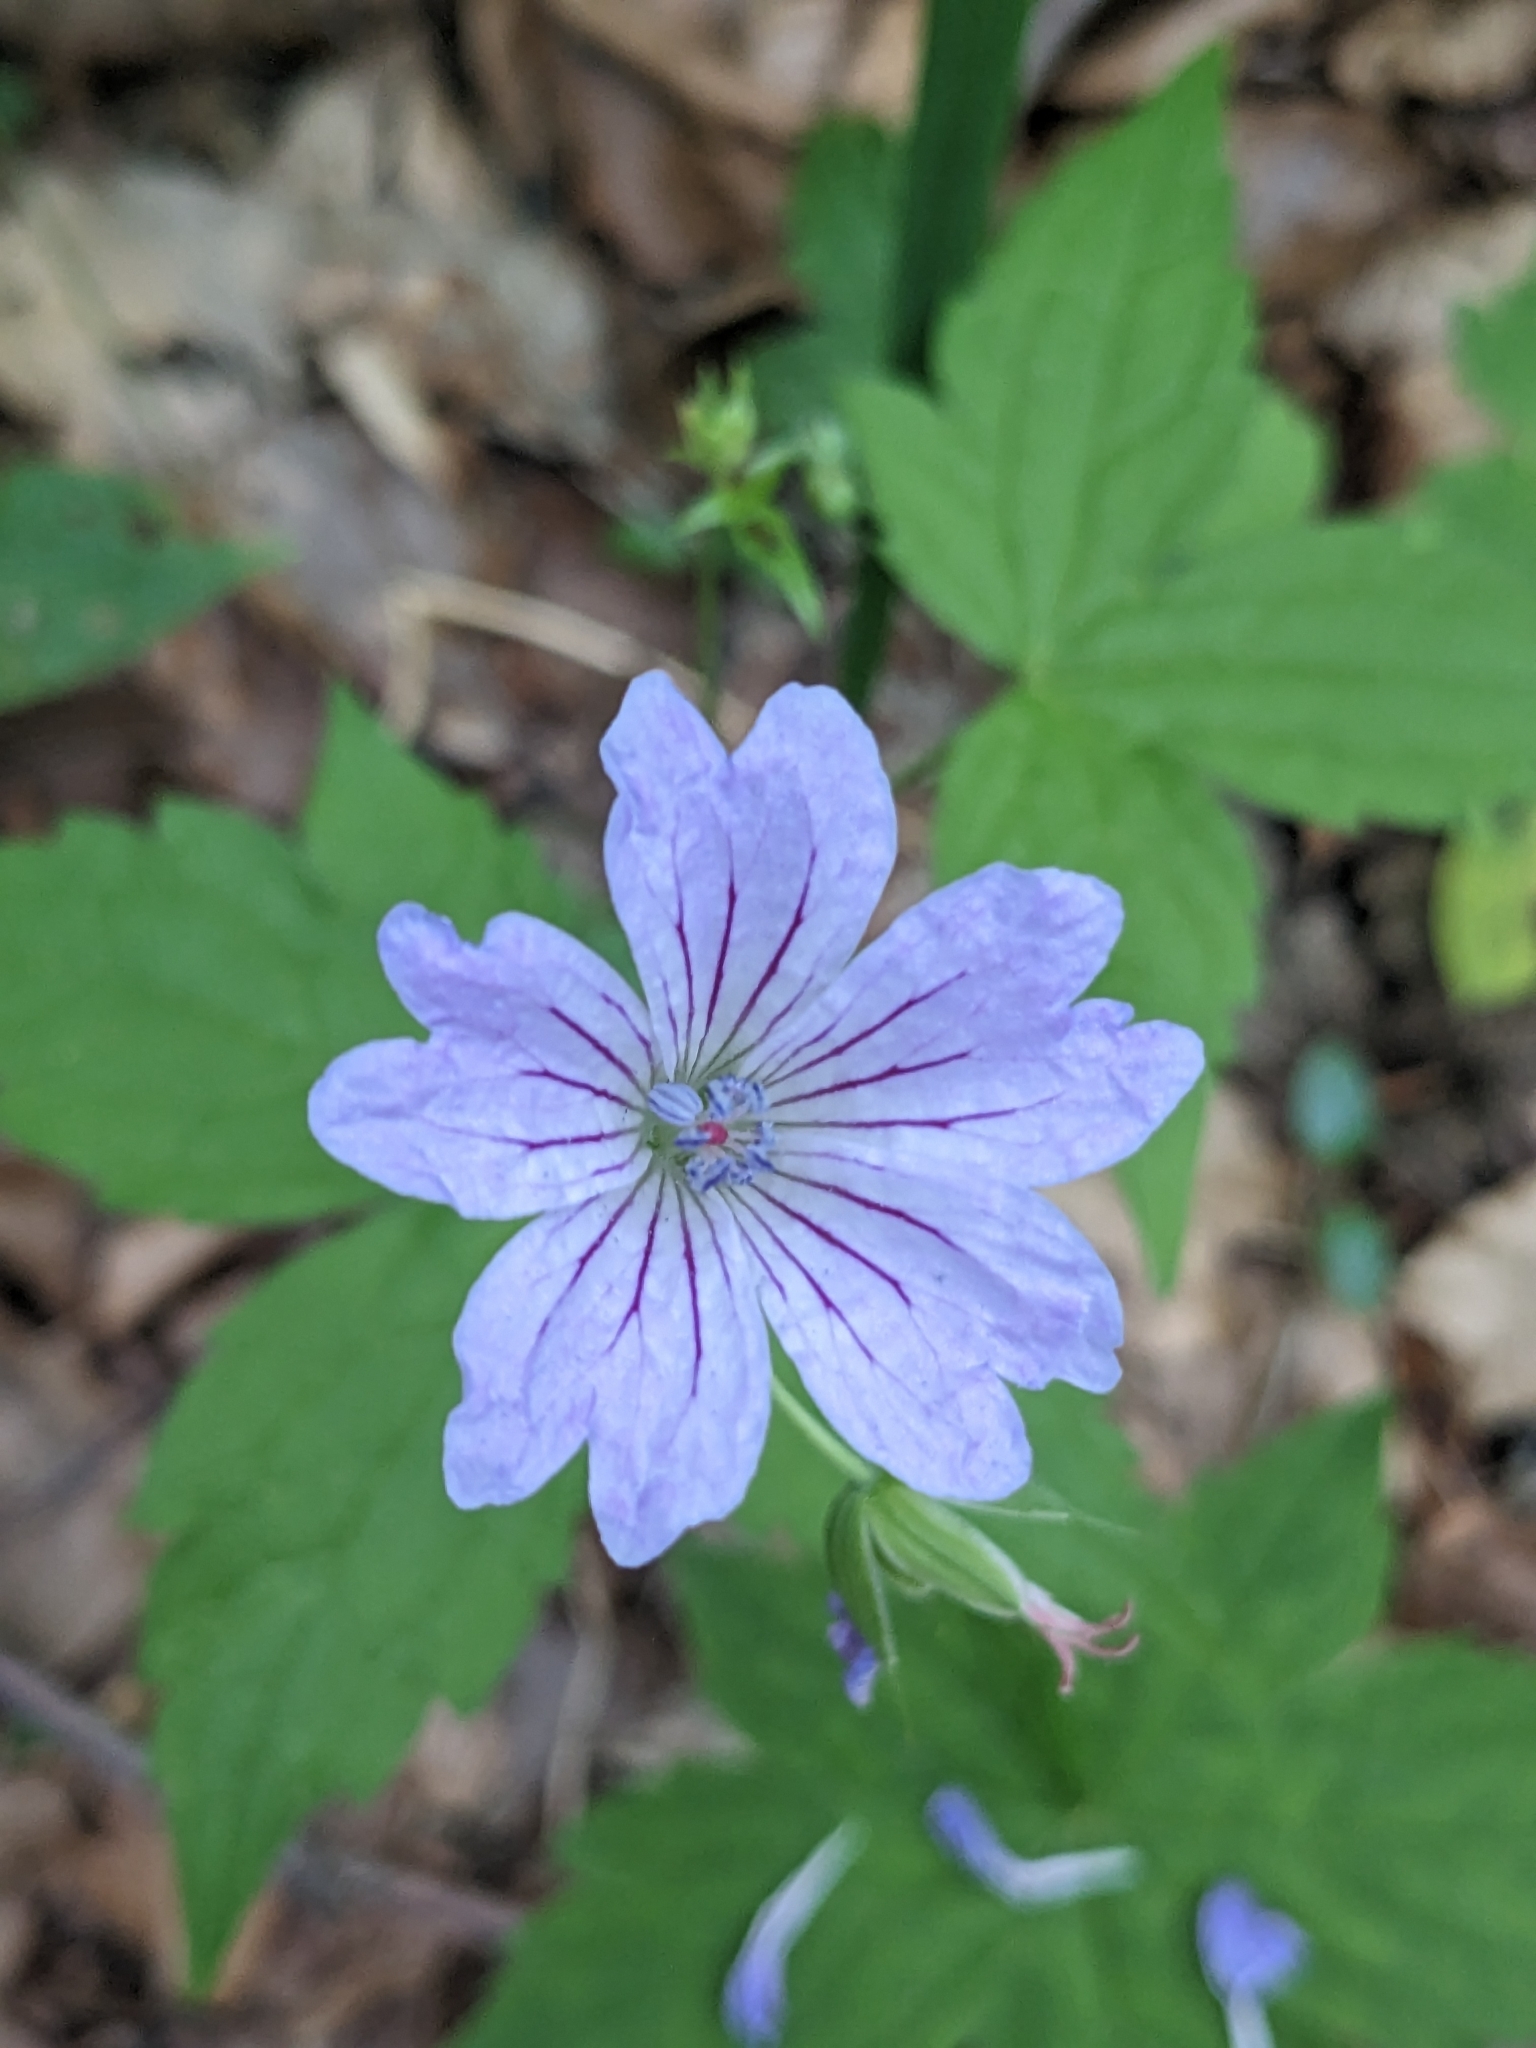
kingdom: Plantae
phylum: Tracheophyta
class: Magnoliopsida
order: Geraniales
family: Geraniaceae
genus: Geranium
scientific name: Geranium nodosum
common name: Knotted crane's-bill
